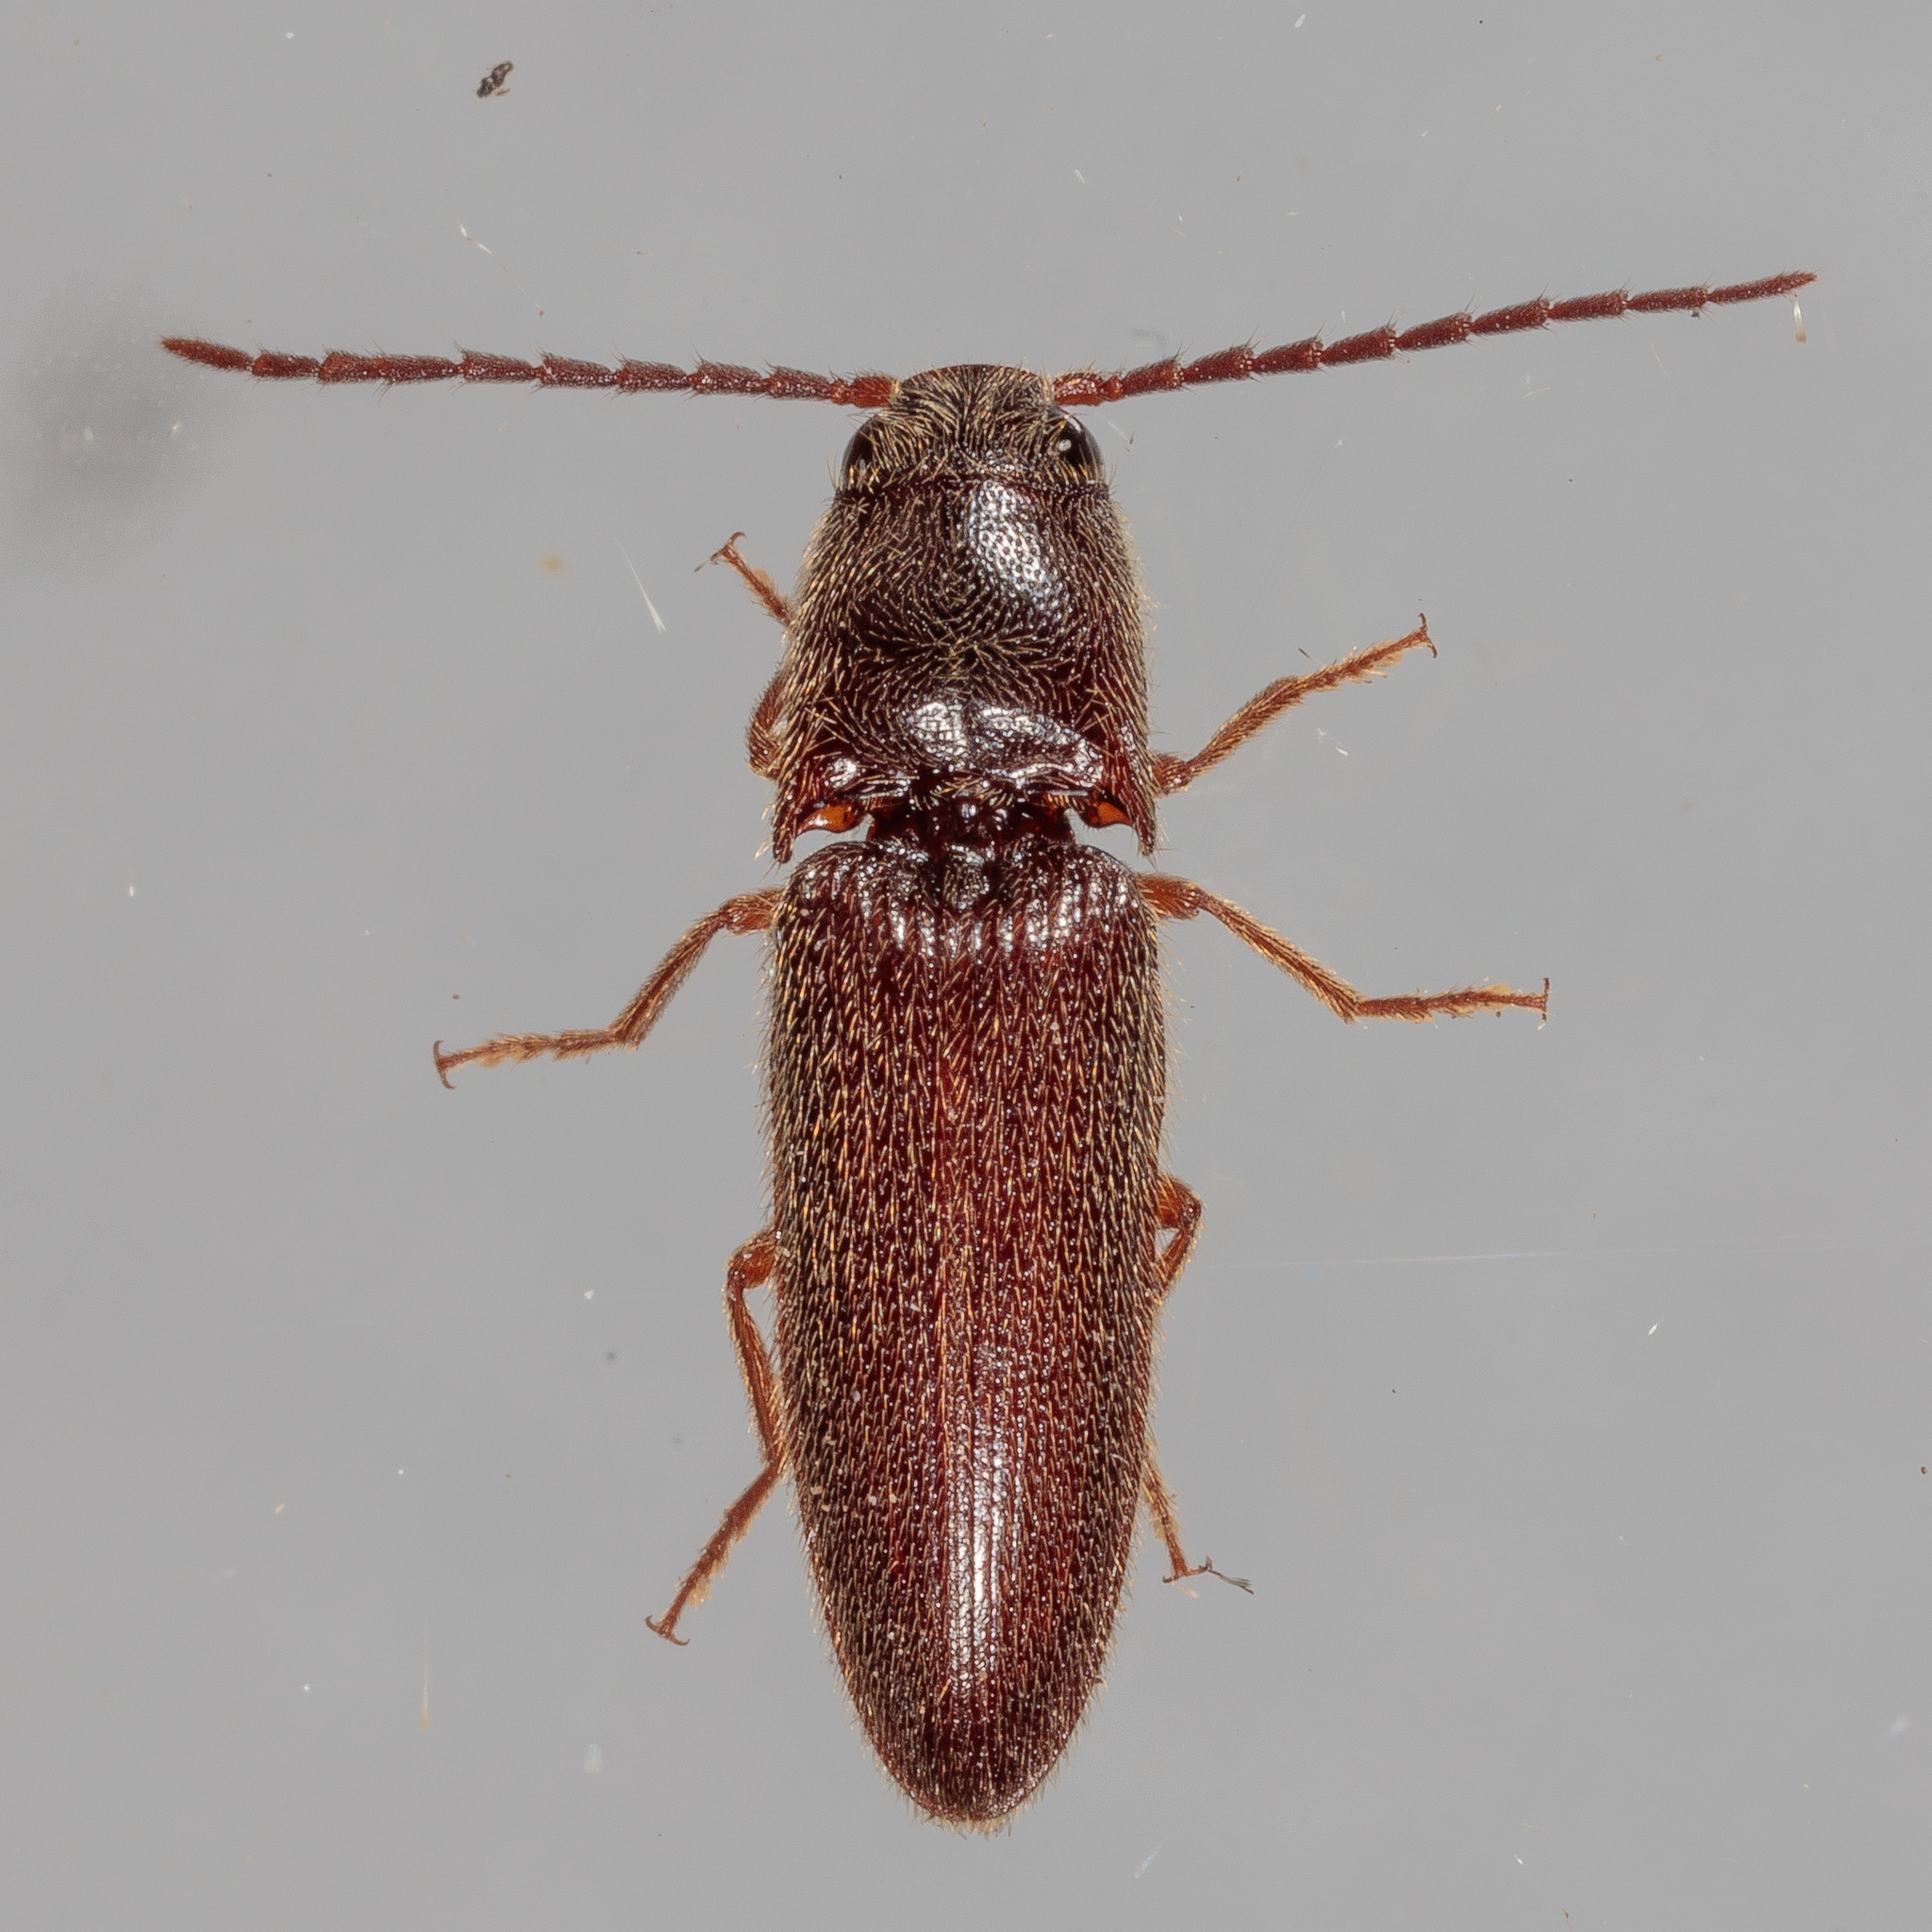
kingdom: Animalia
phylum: Arthropoda
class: Insecta
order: Coleoptera
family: Elateridae
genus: Dipropus
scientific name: Dipropus
